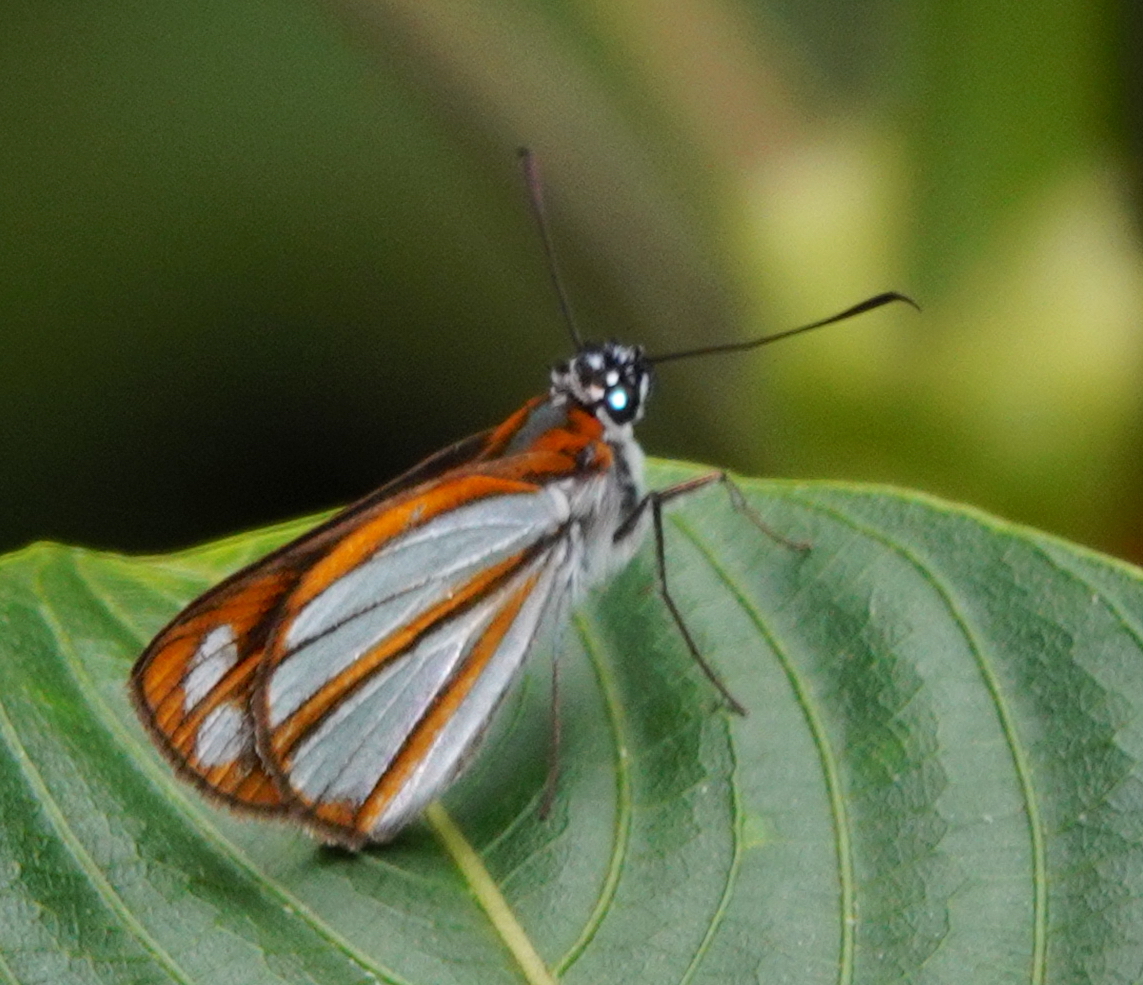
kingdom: Animalia
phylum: Arthropoda
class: Insecta
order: Lepidoptera
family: Hesperiidae
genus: Corra
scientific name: Corra
